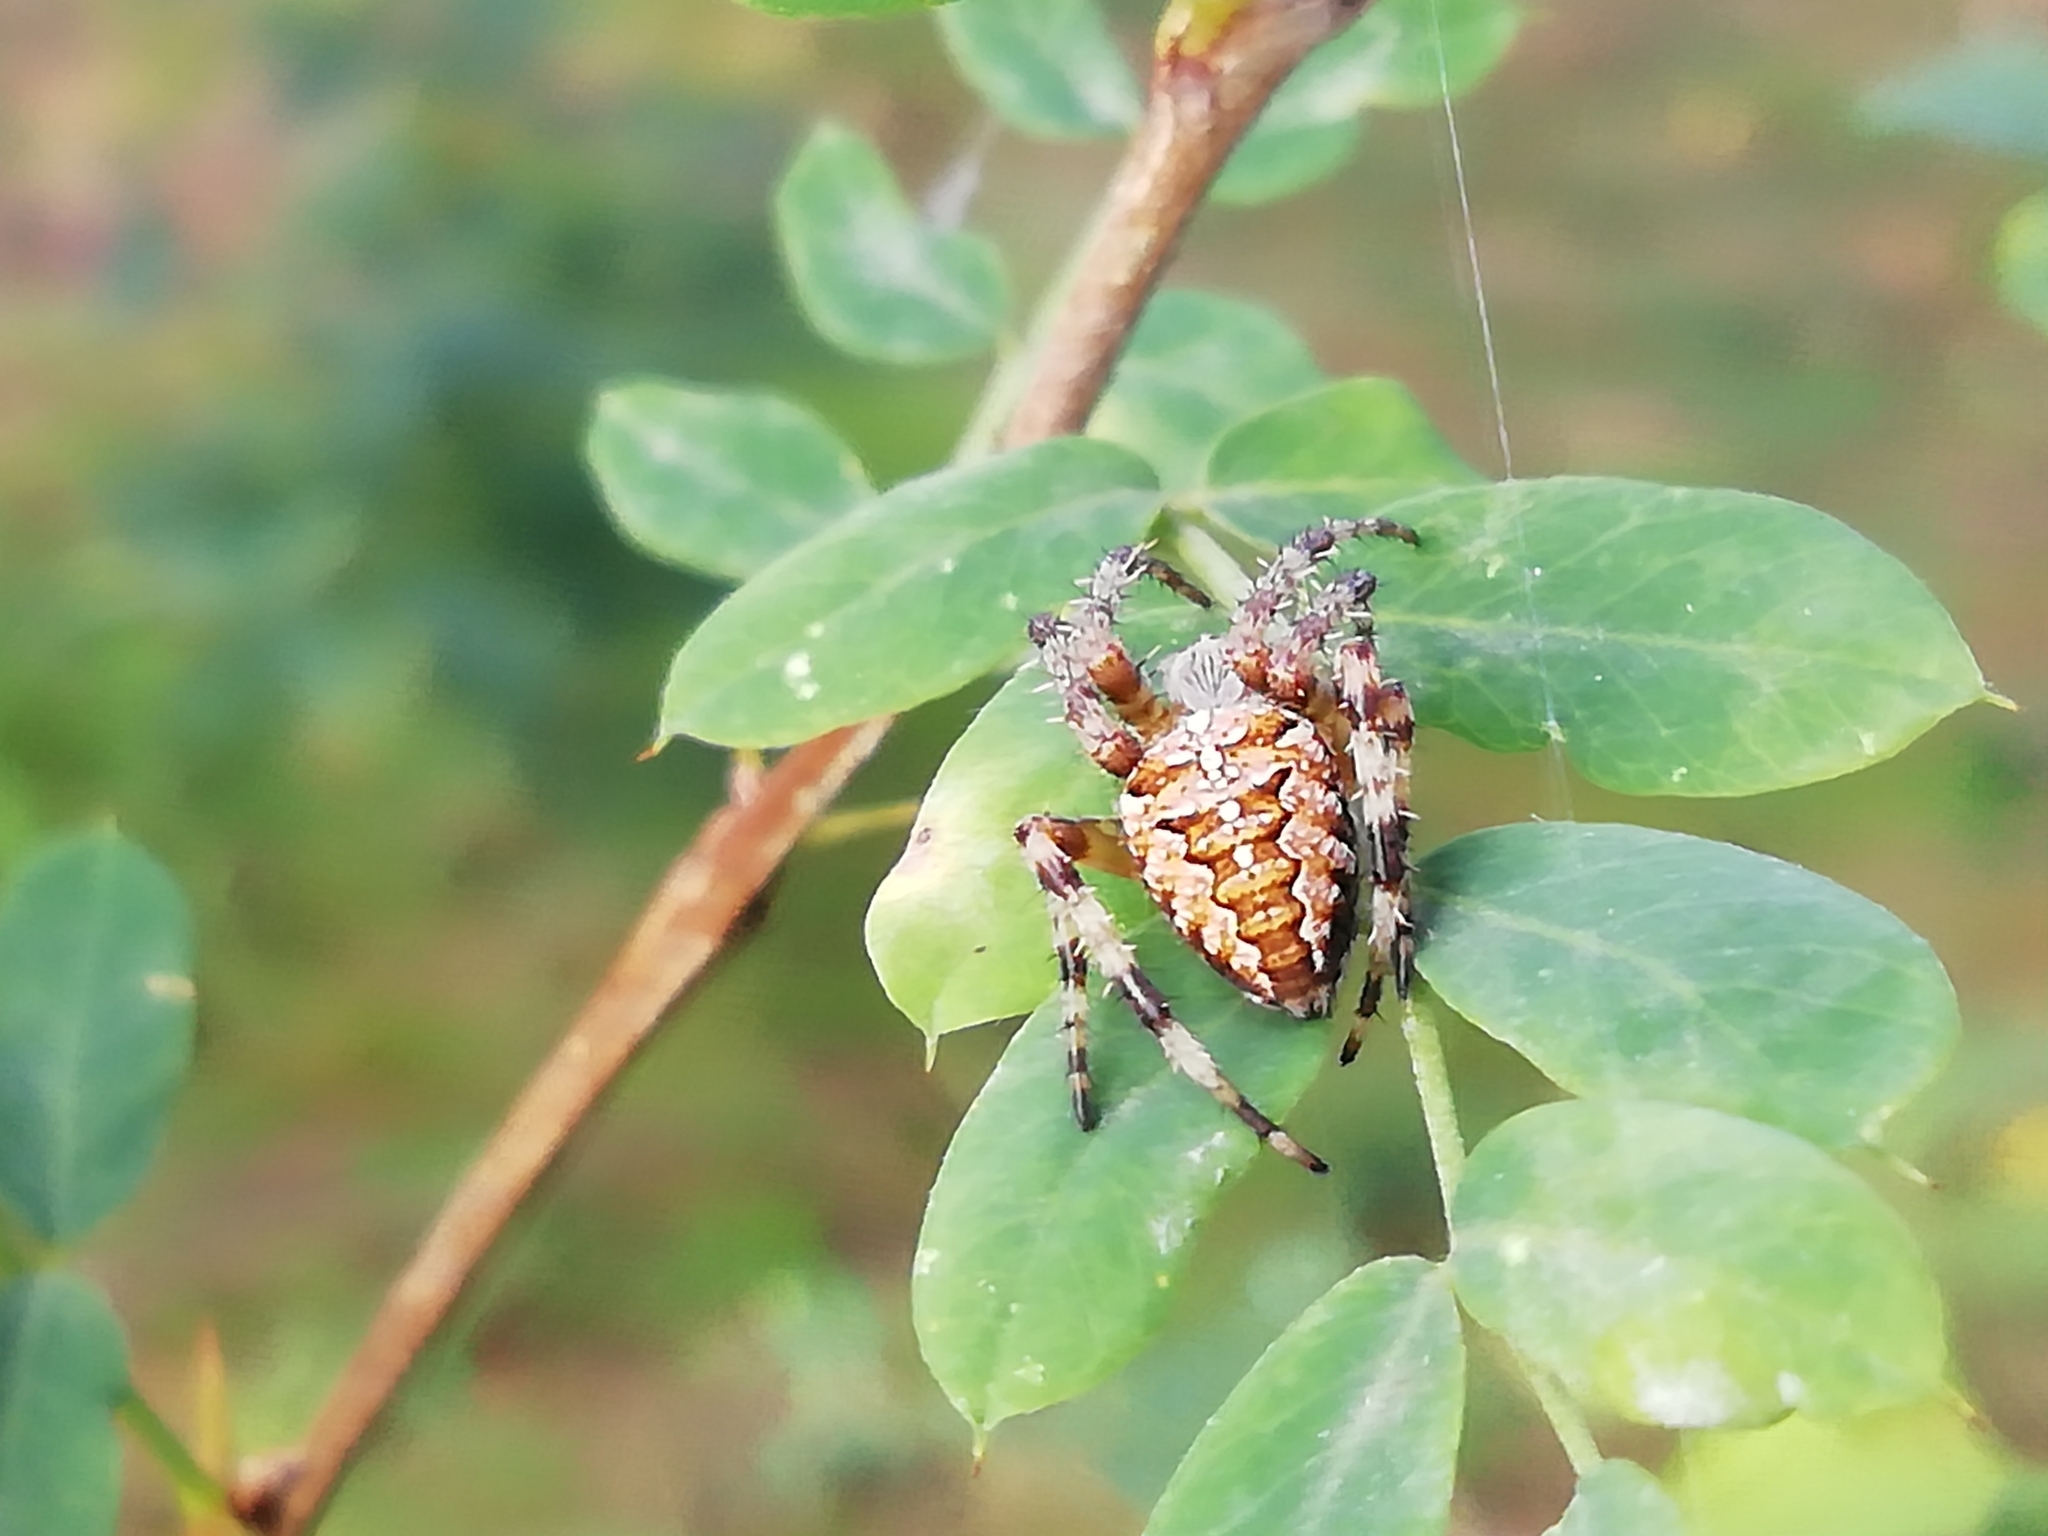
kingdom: Animalia
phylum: Arthropoda
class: Arachnida
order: Araneae
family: Araneidae
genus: Araneus
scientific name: Araneus diadematus
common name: Cross orbweaver
